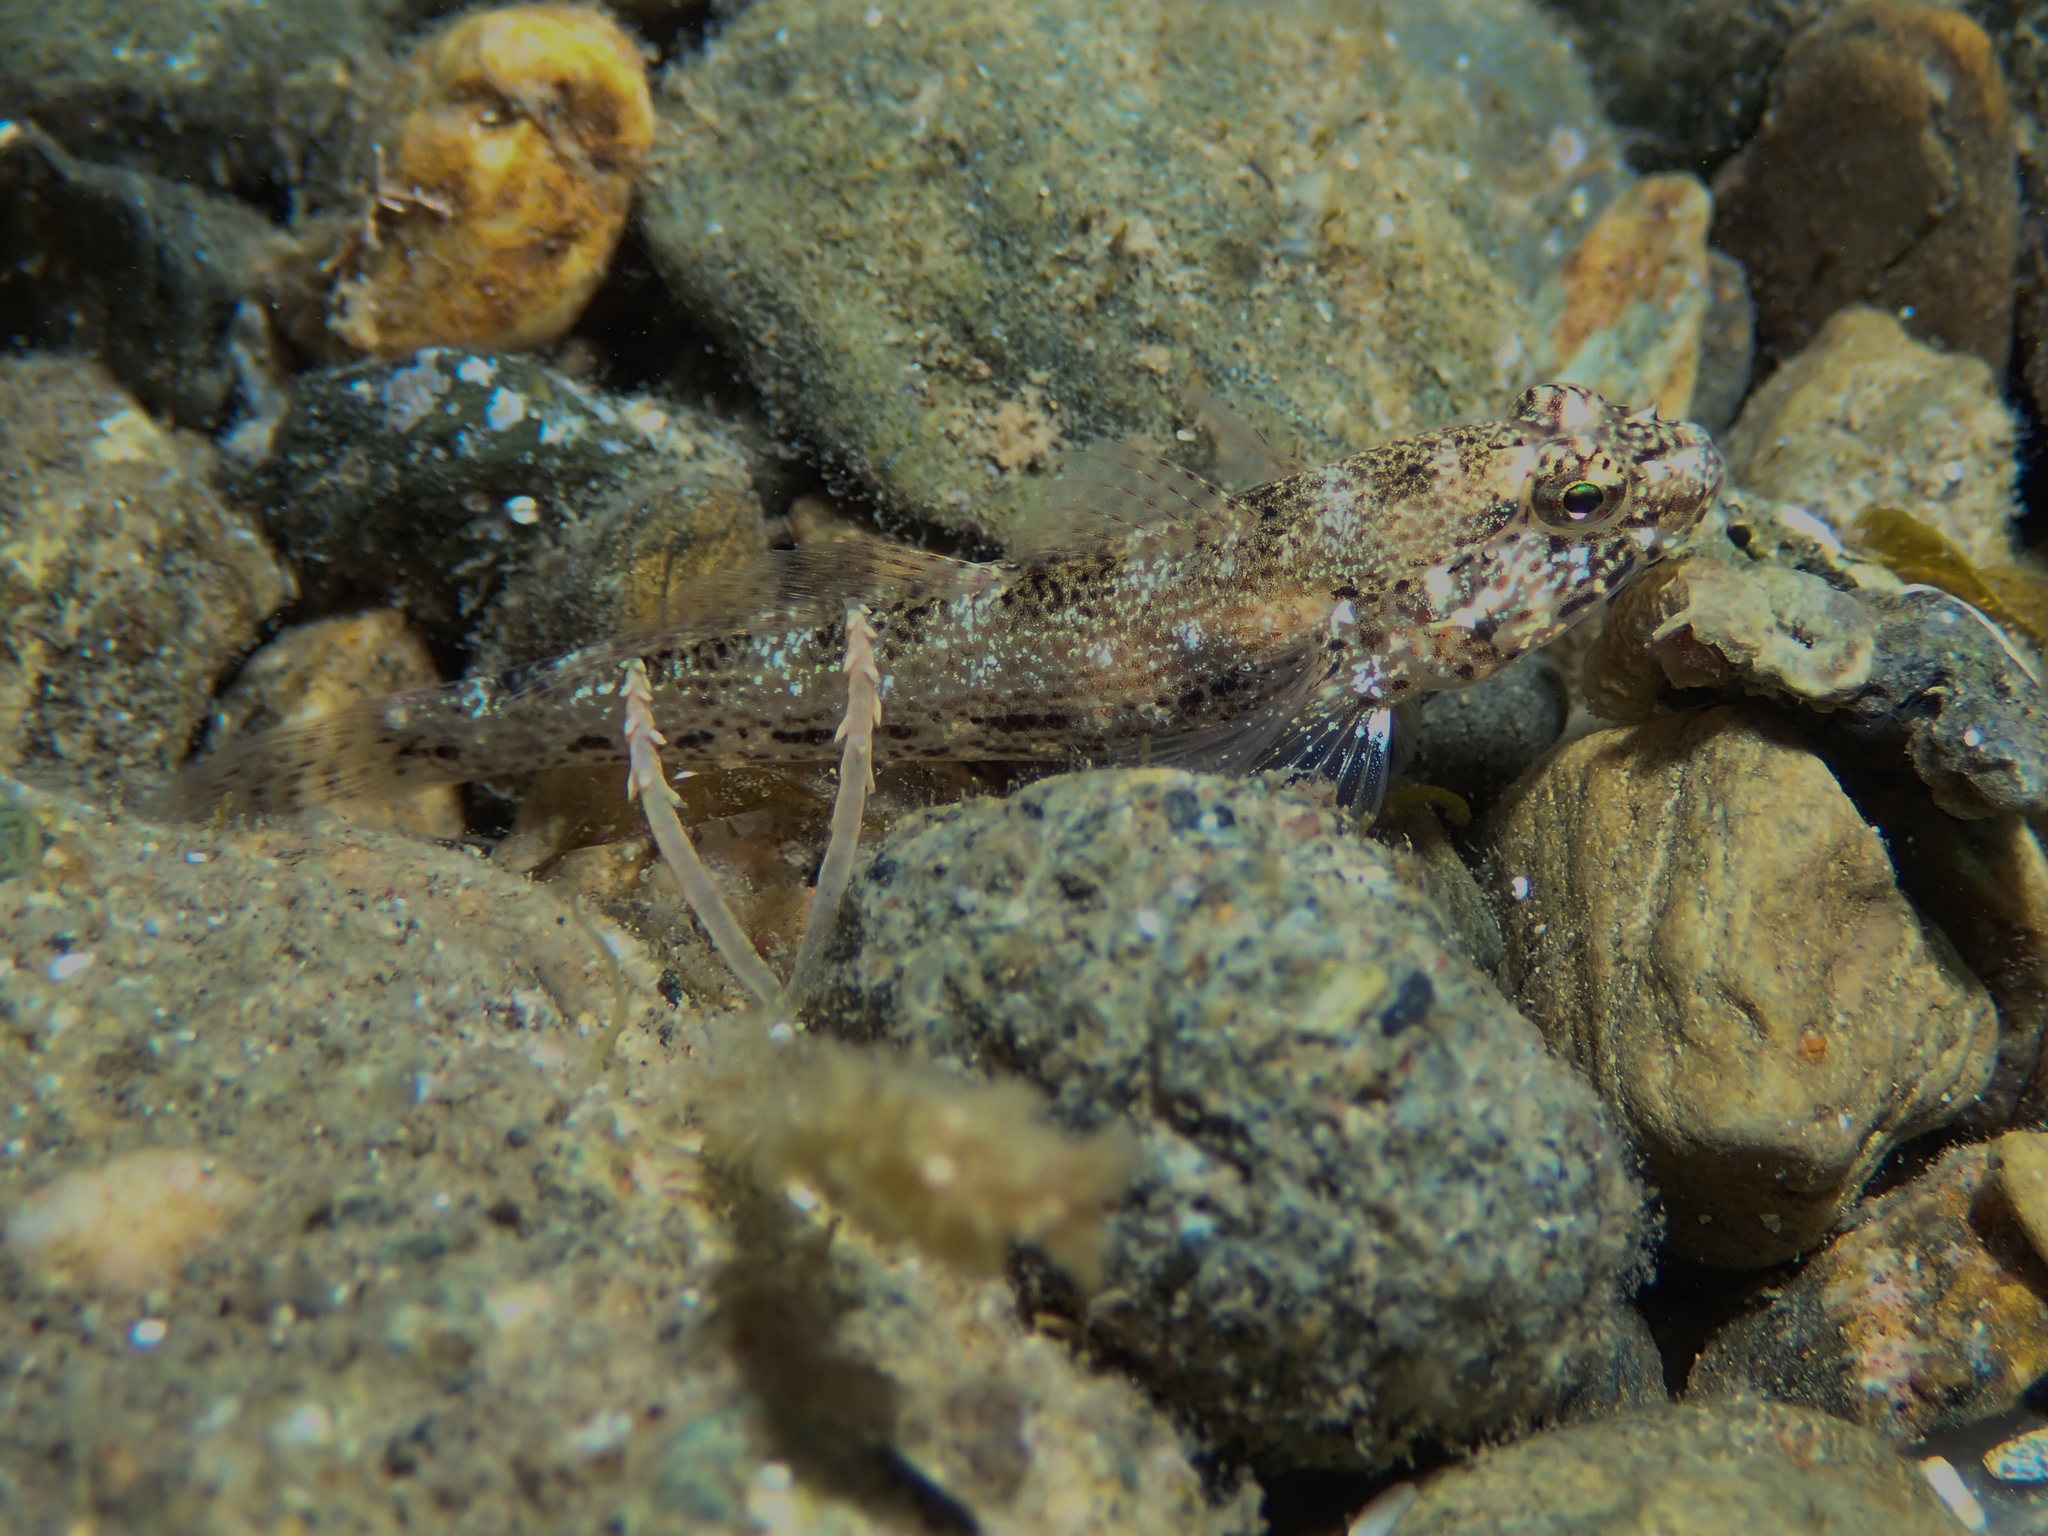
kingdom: Animalia
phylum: Chordata
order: Perciformes
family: Gobiidae
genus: Gobius
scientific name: Gobius incognitus
